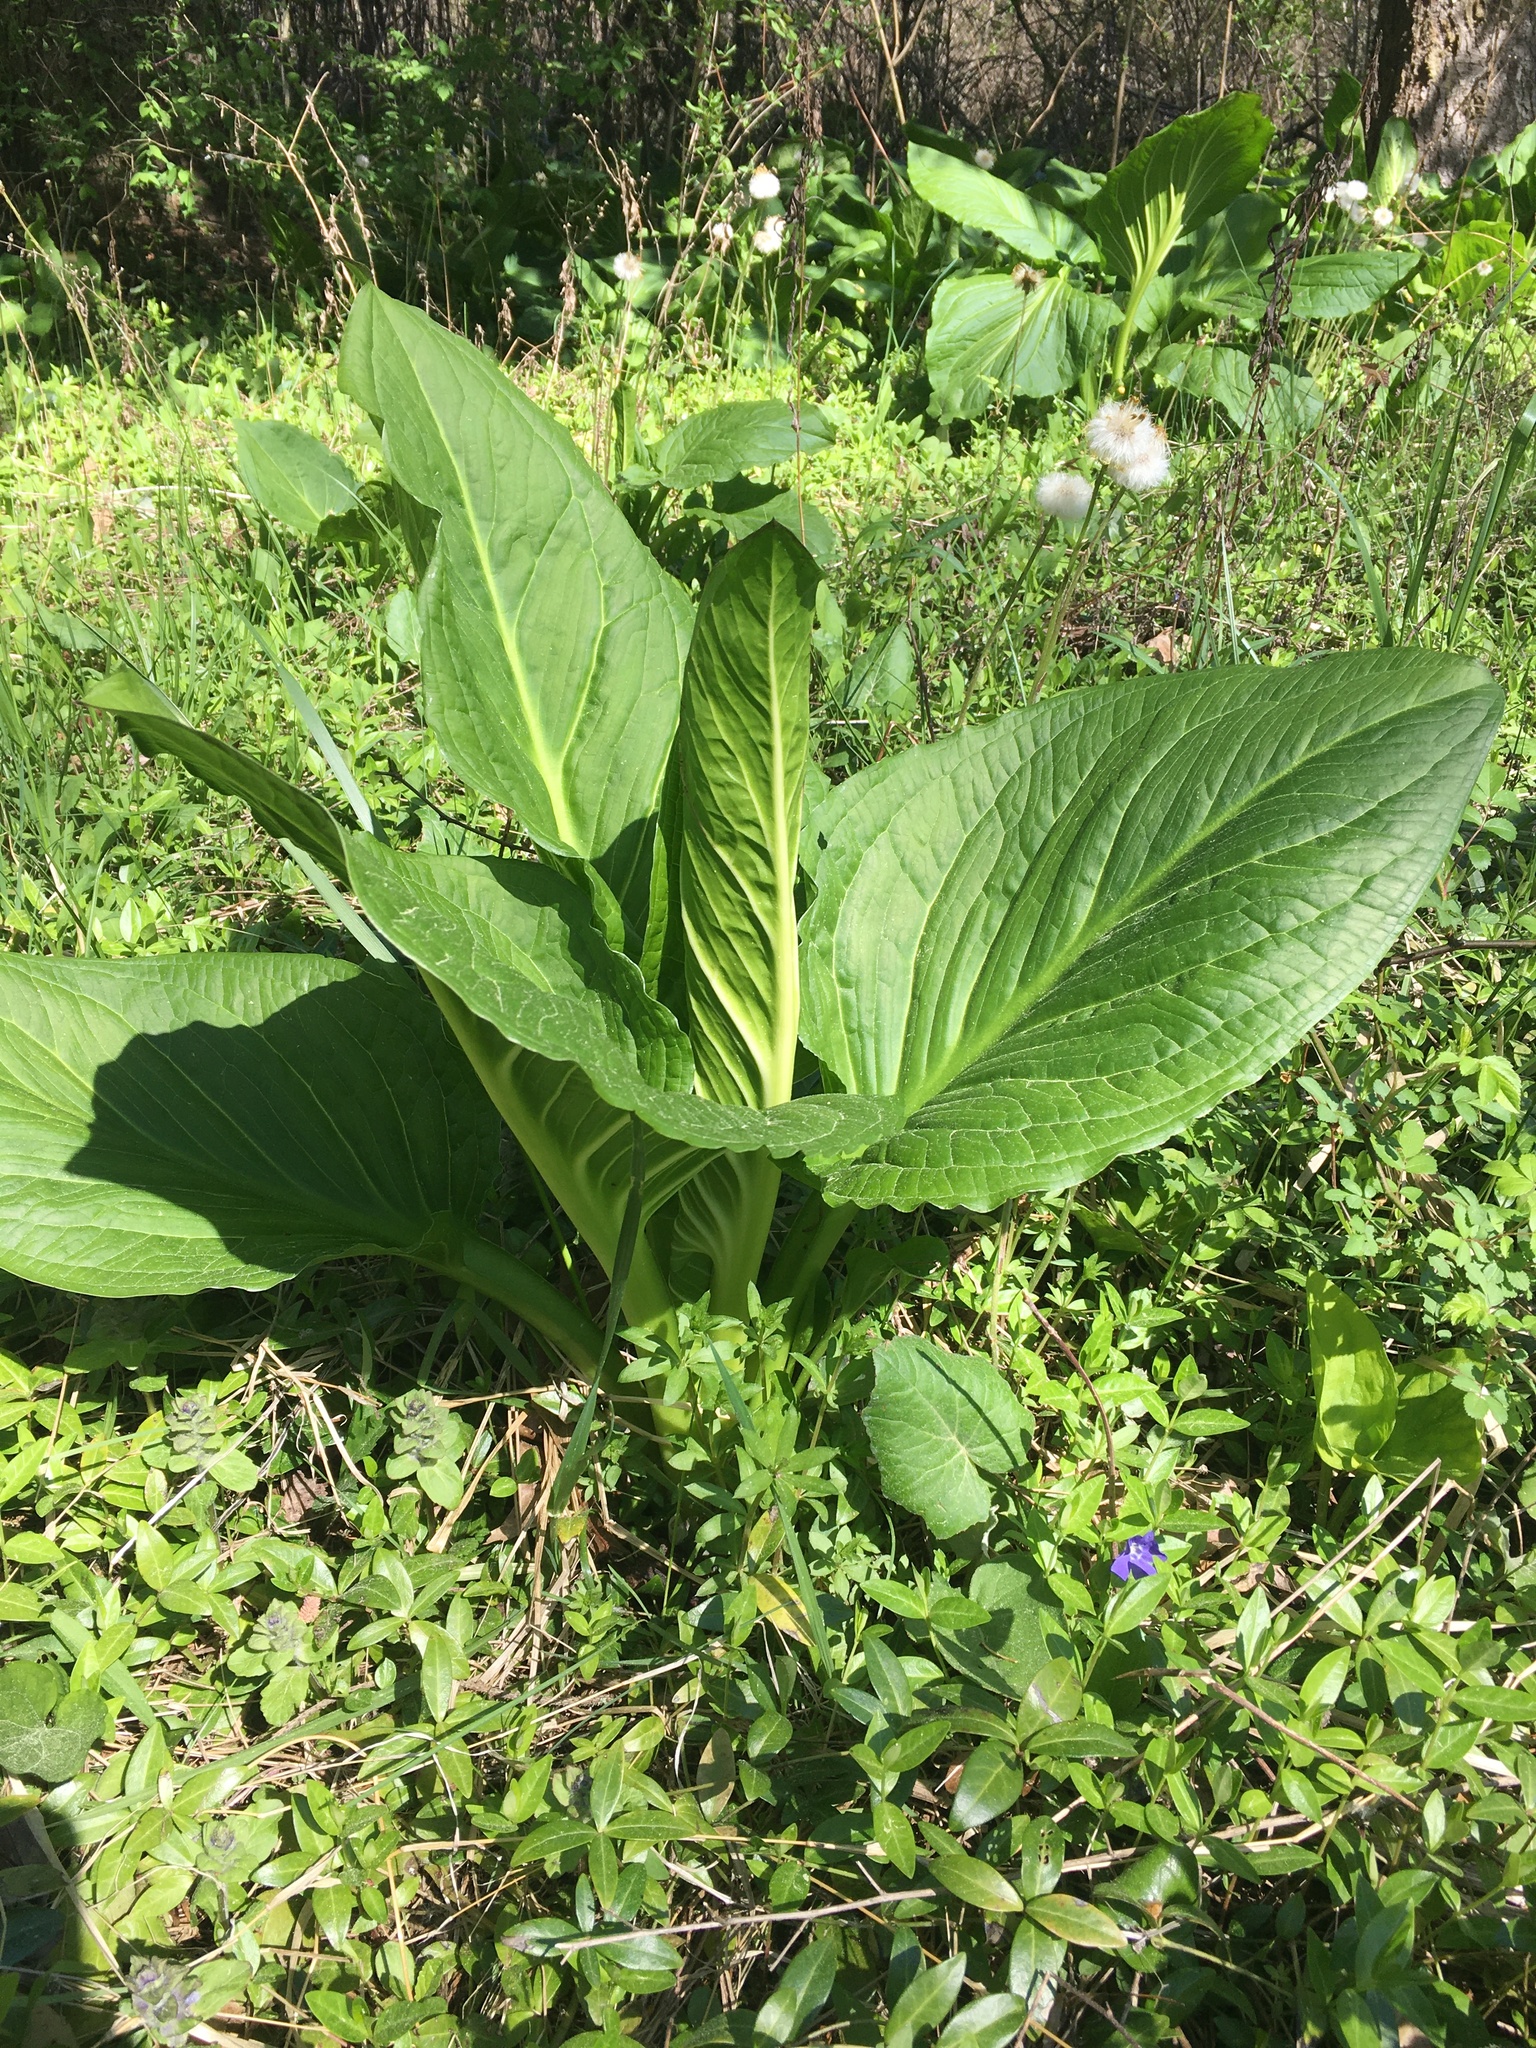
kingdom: Plantae
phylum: Tracheophyta
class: Liliopsida
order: Alismatales
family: Araceae
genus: Symplocarpus
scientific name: Symplocarpus foetidus
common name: Eastern skunk cabbage
